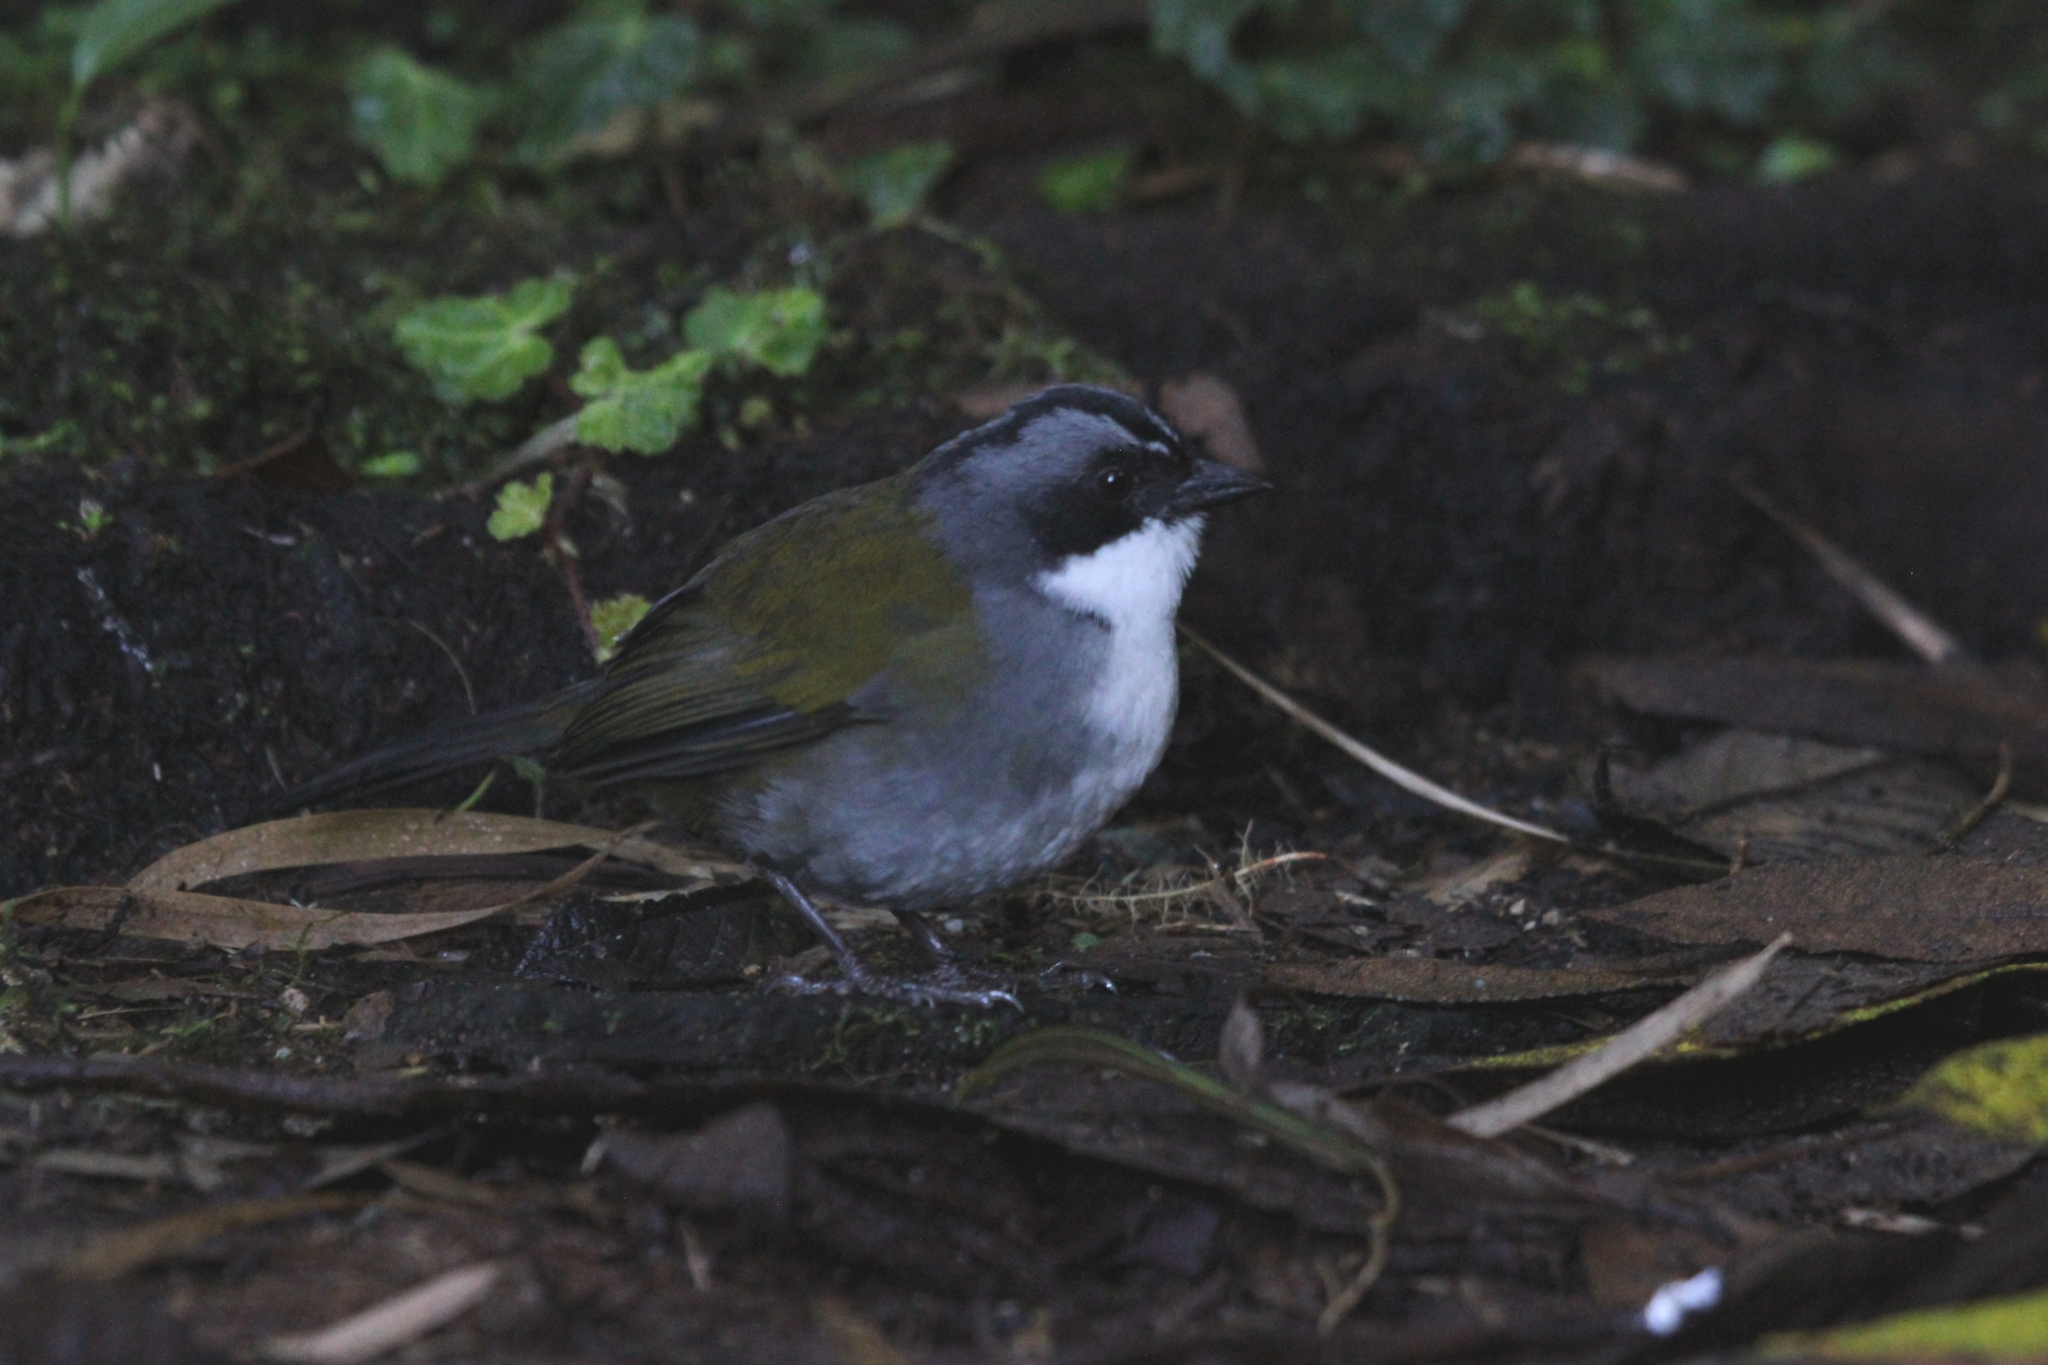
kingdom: Animalia
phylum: Chordata
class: Aves
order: Passeriformes
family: Passerellidae
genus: Arremon
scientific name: Arremon assimilis
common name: Grey-browed brushfinch
